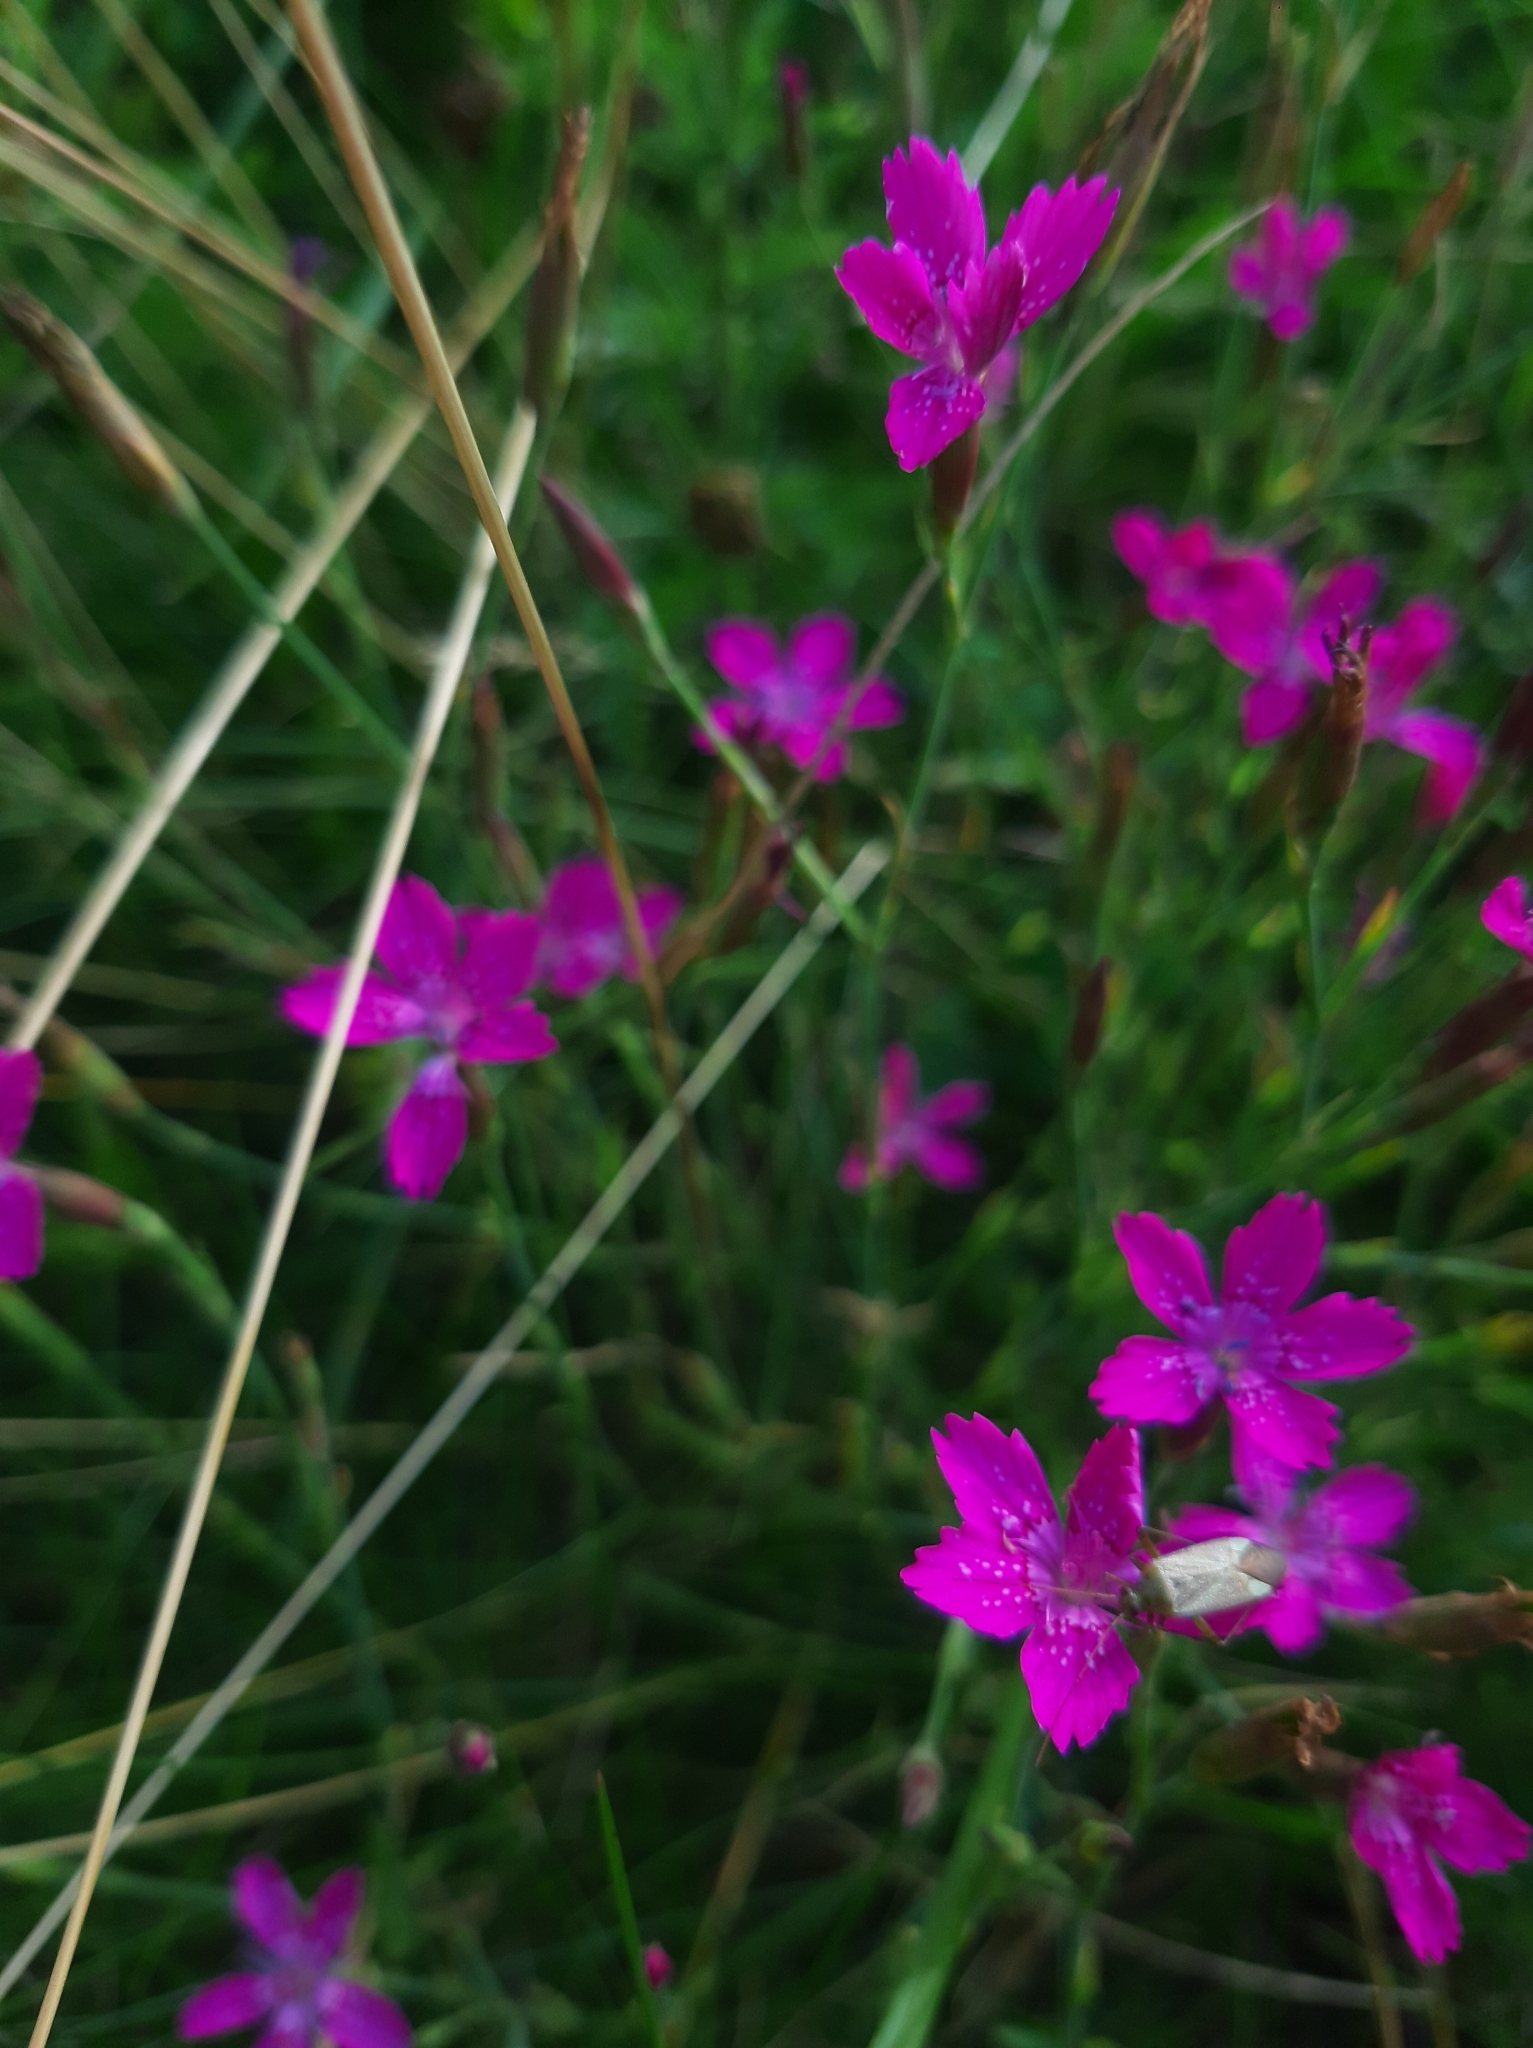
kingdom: Plantae
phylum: Tracheophyta
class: Magnoliopsida
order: Caryophyllales
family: Caryophyllaceae
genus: Dianthus
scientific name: Dianthus deltoides
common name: Maiden pink
